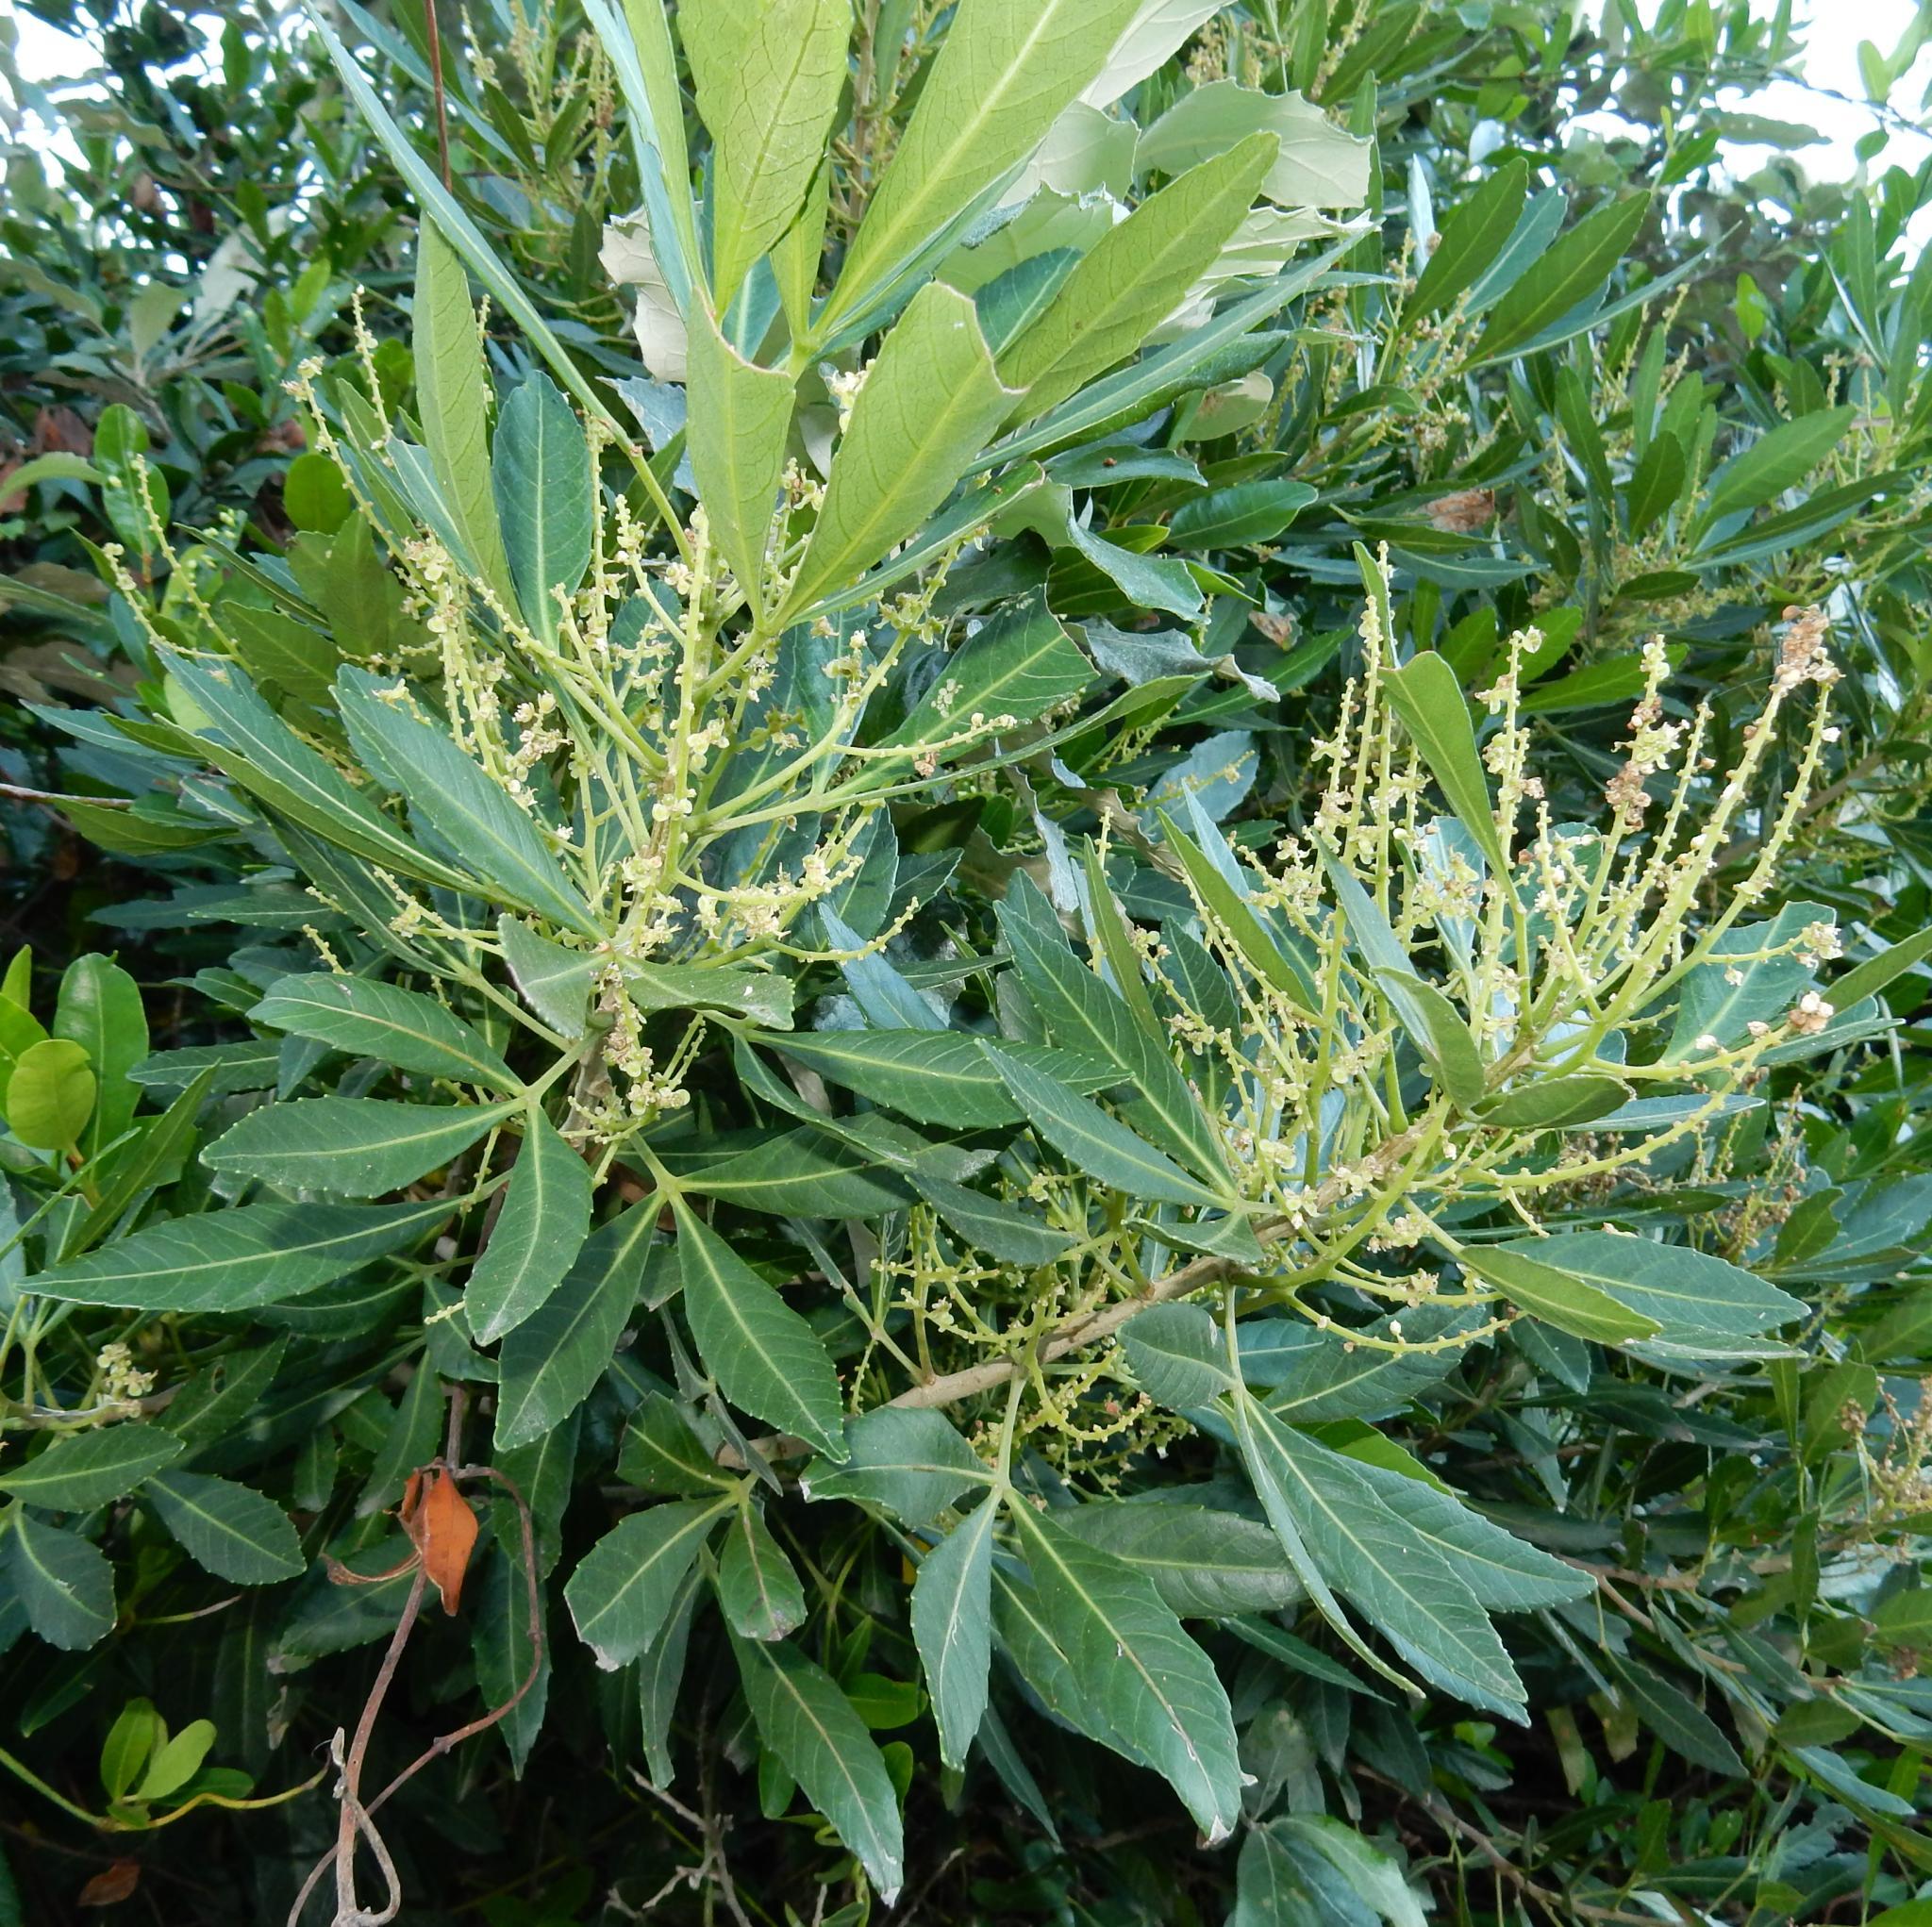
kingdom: Plantae
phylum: Tracheophyta
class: Magnoliopsida
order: Sapindales
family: Sapindaceae
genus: Allophylus
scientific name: Allophylus natalensis
